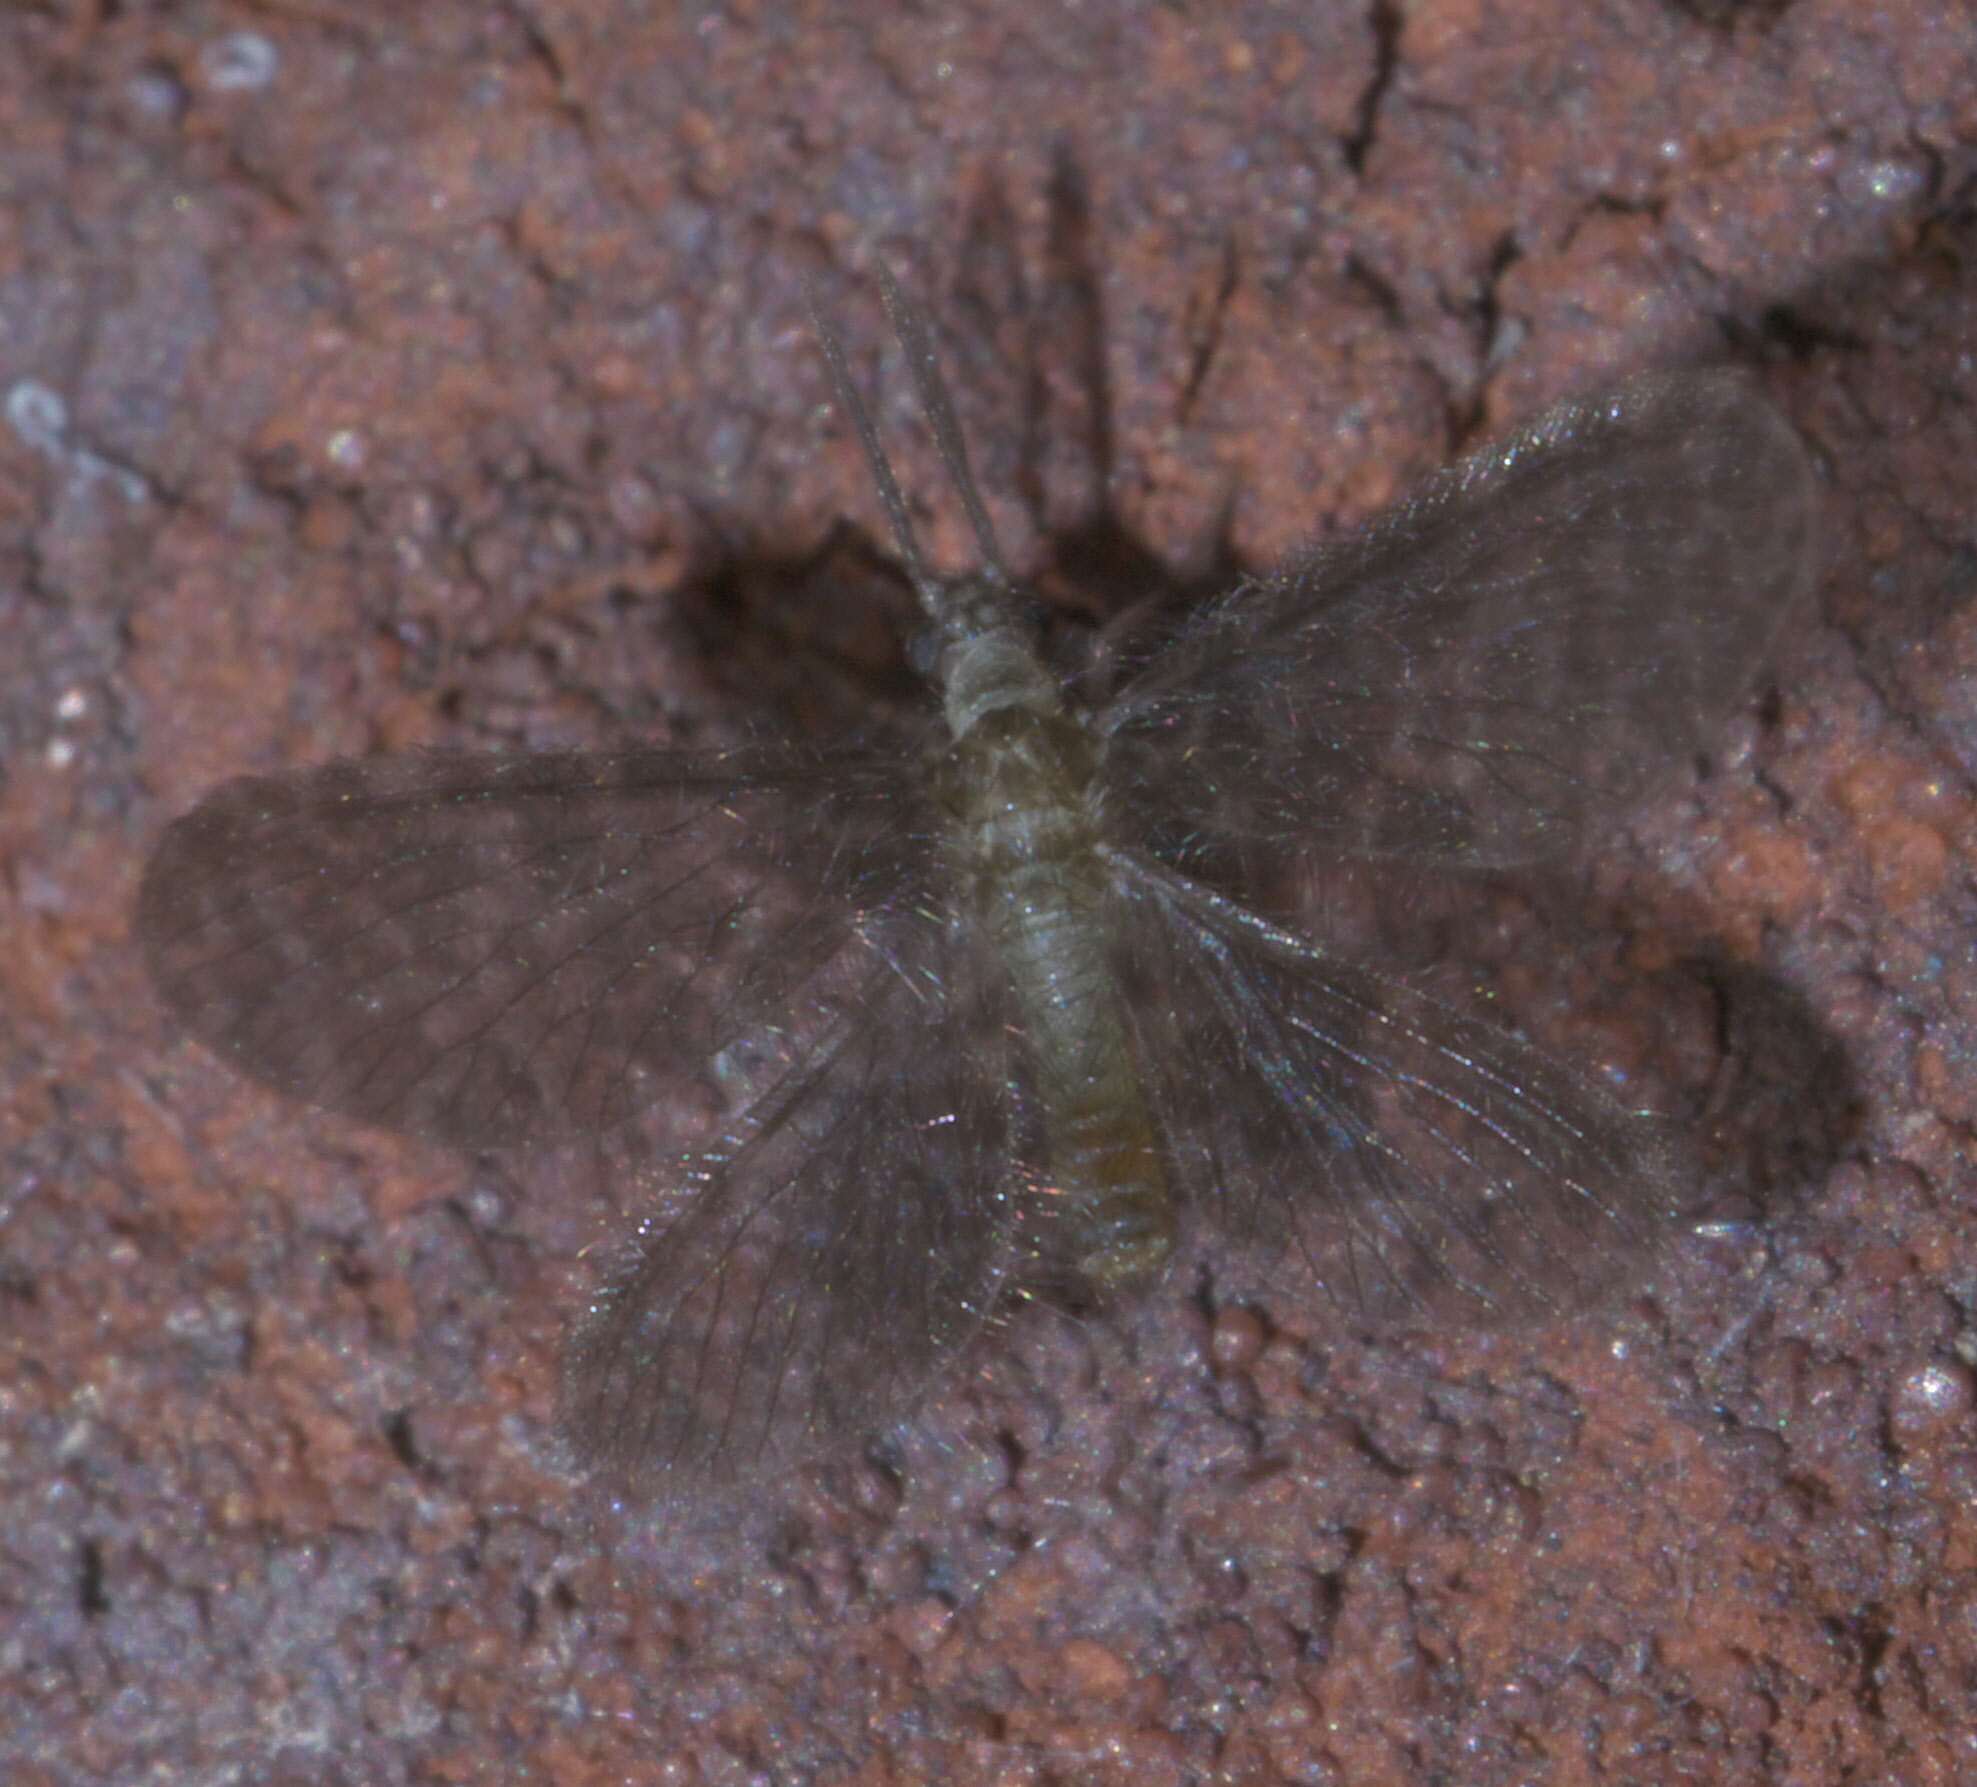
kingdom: Animalia
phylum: Arthropoda
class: Insecta
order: Neuroptera
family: Dilaridae
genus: Nallachius
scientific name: Nallachius americanus
